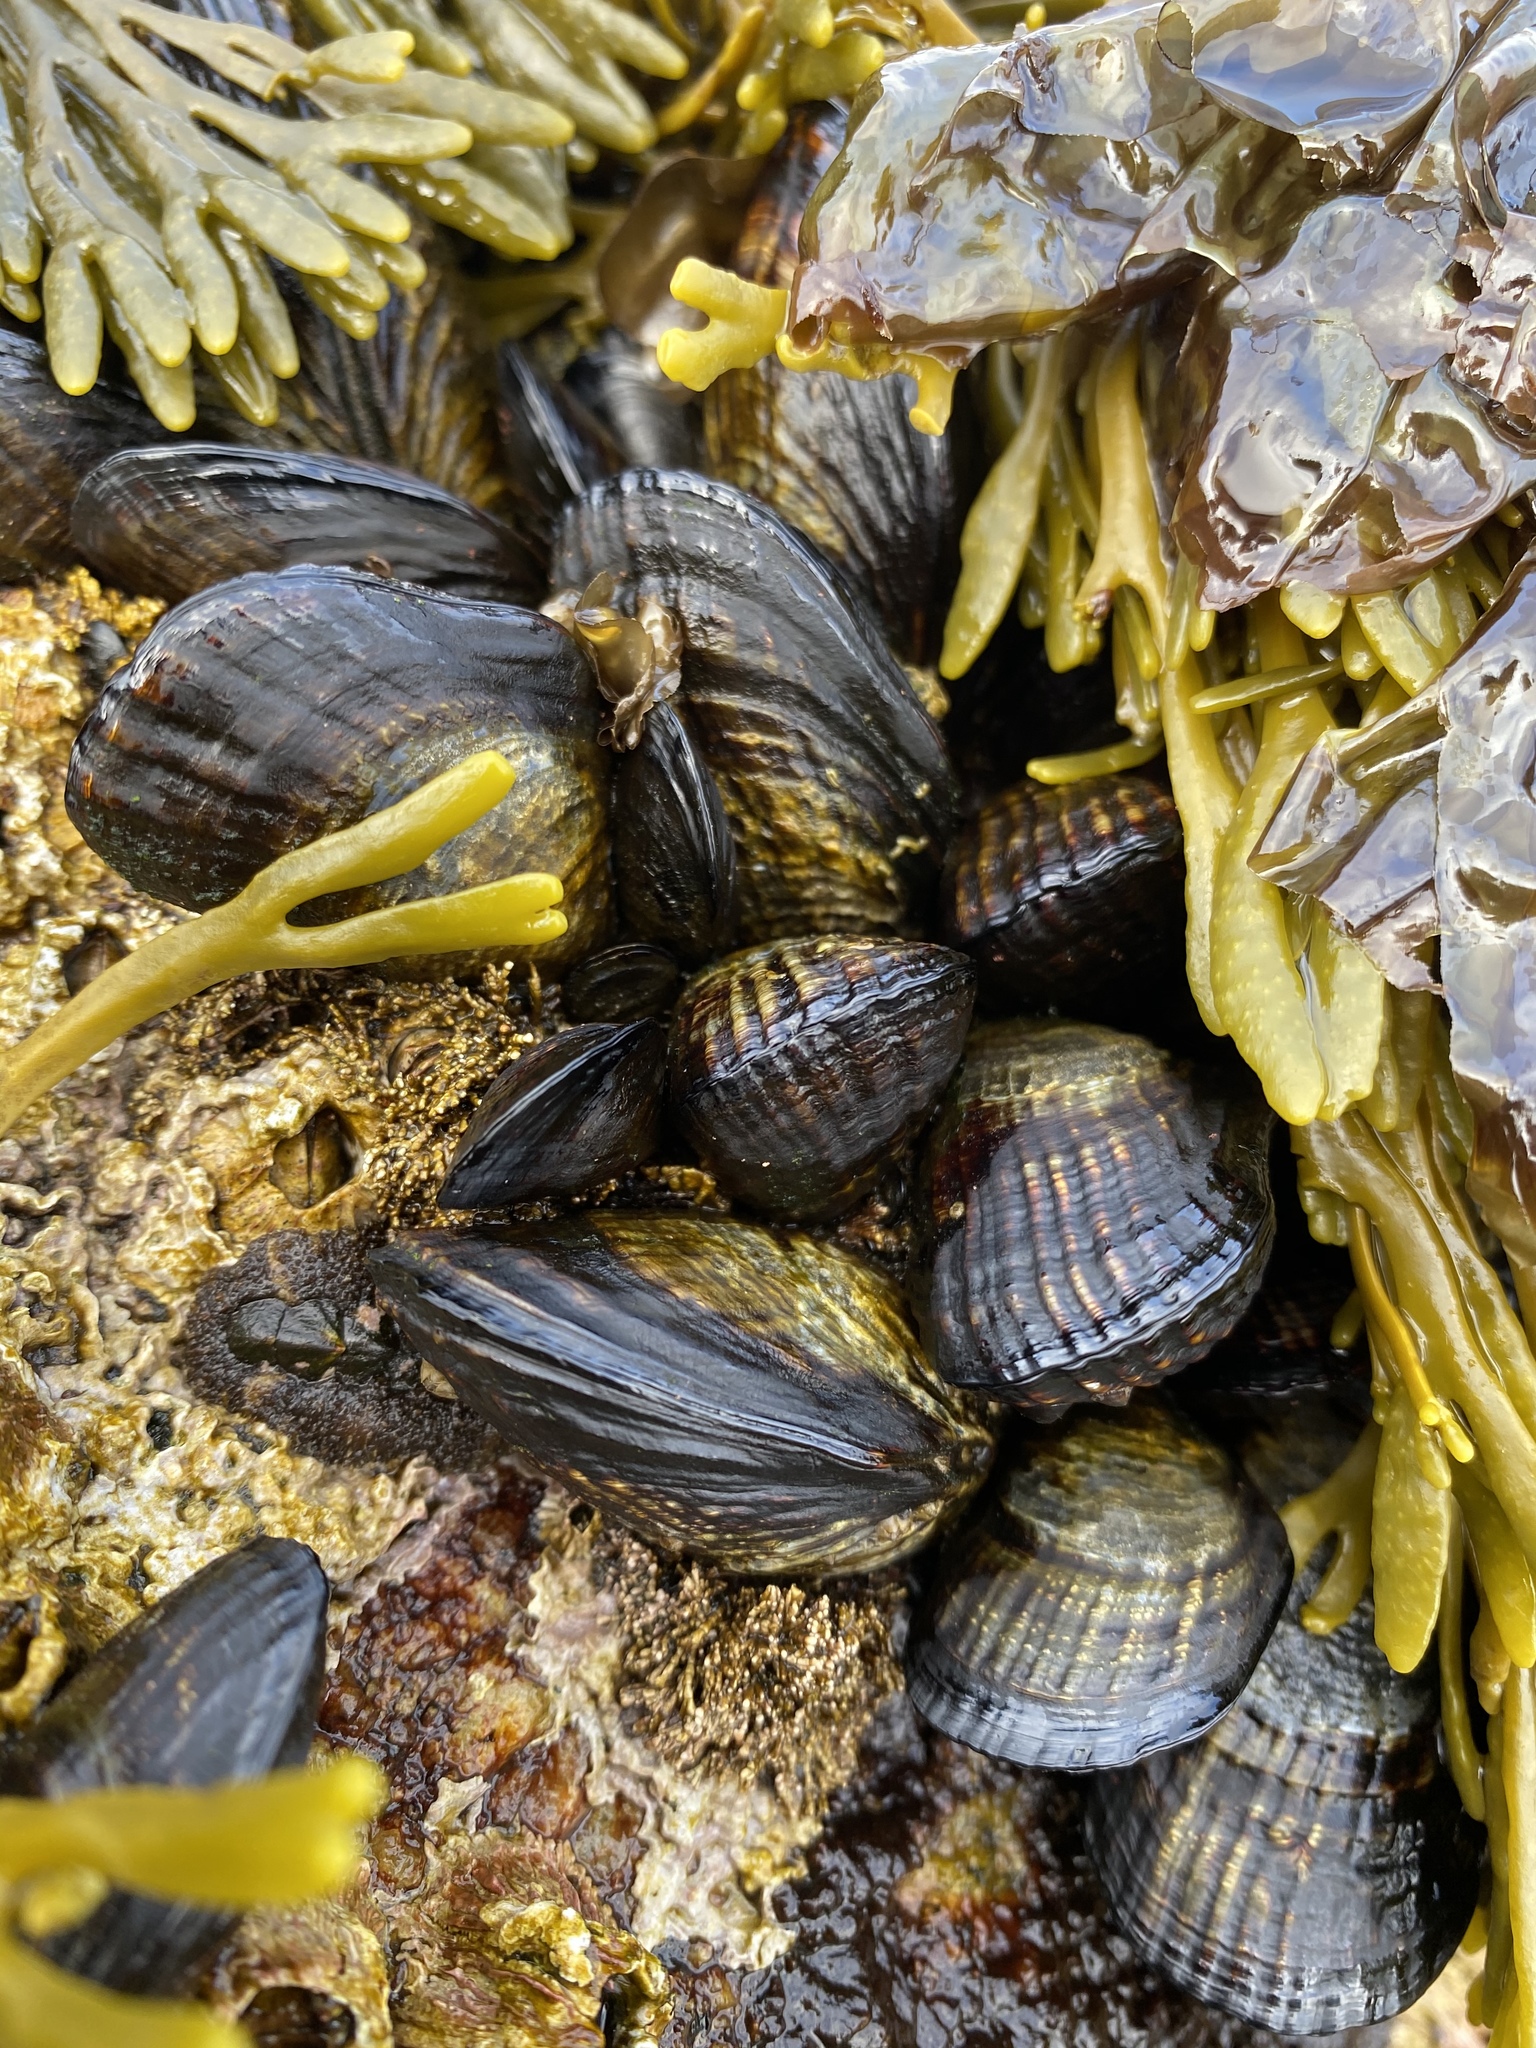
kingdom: Animalia
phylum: Mollusca
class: Bivalvia
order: Mytilida
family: Mytilidae
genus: Mytilus
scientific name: Mytilus californianus
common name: California mussel
